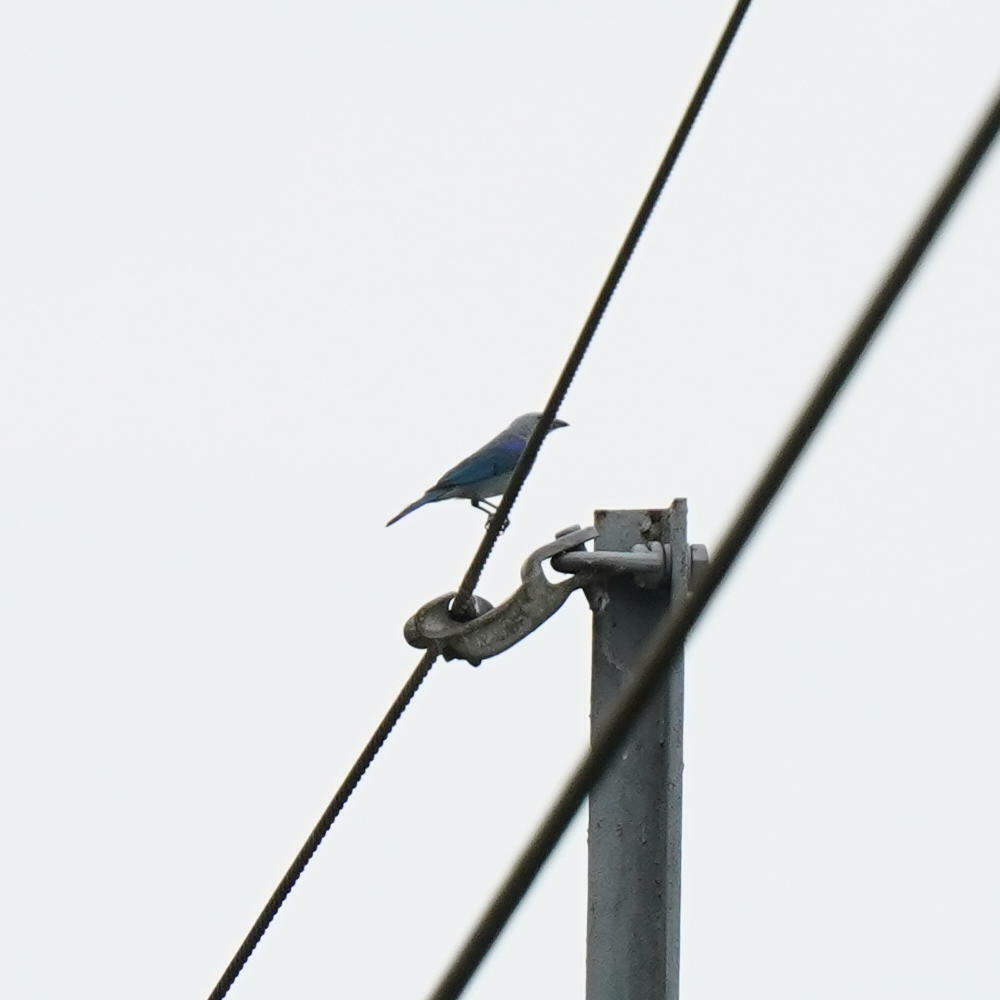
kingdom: Animalia
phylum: Chordata
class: Aves
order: Passeriformes
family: Thraupidae
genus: Thraupis
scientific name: Thraupis episcopus
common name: Blue-grey tanager
